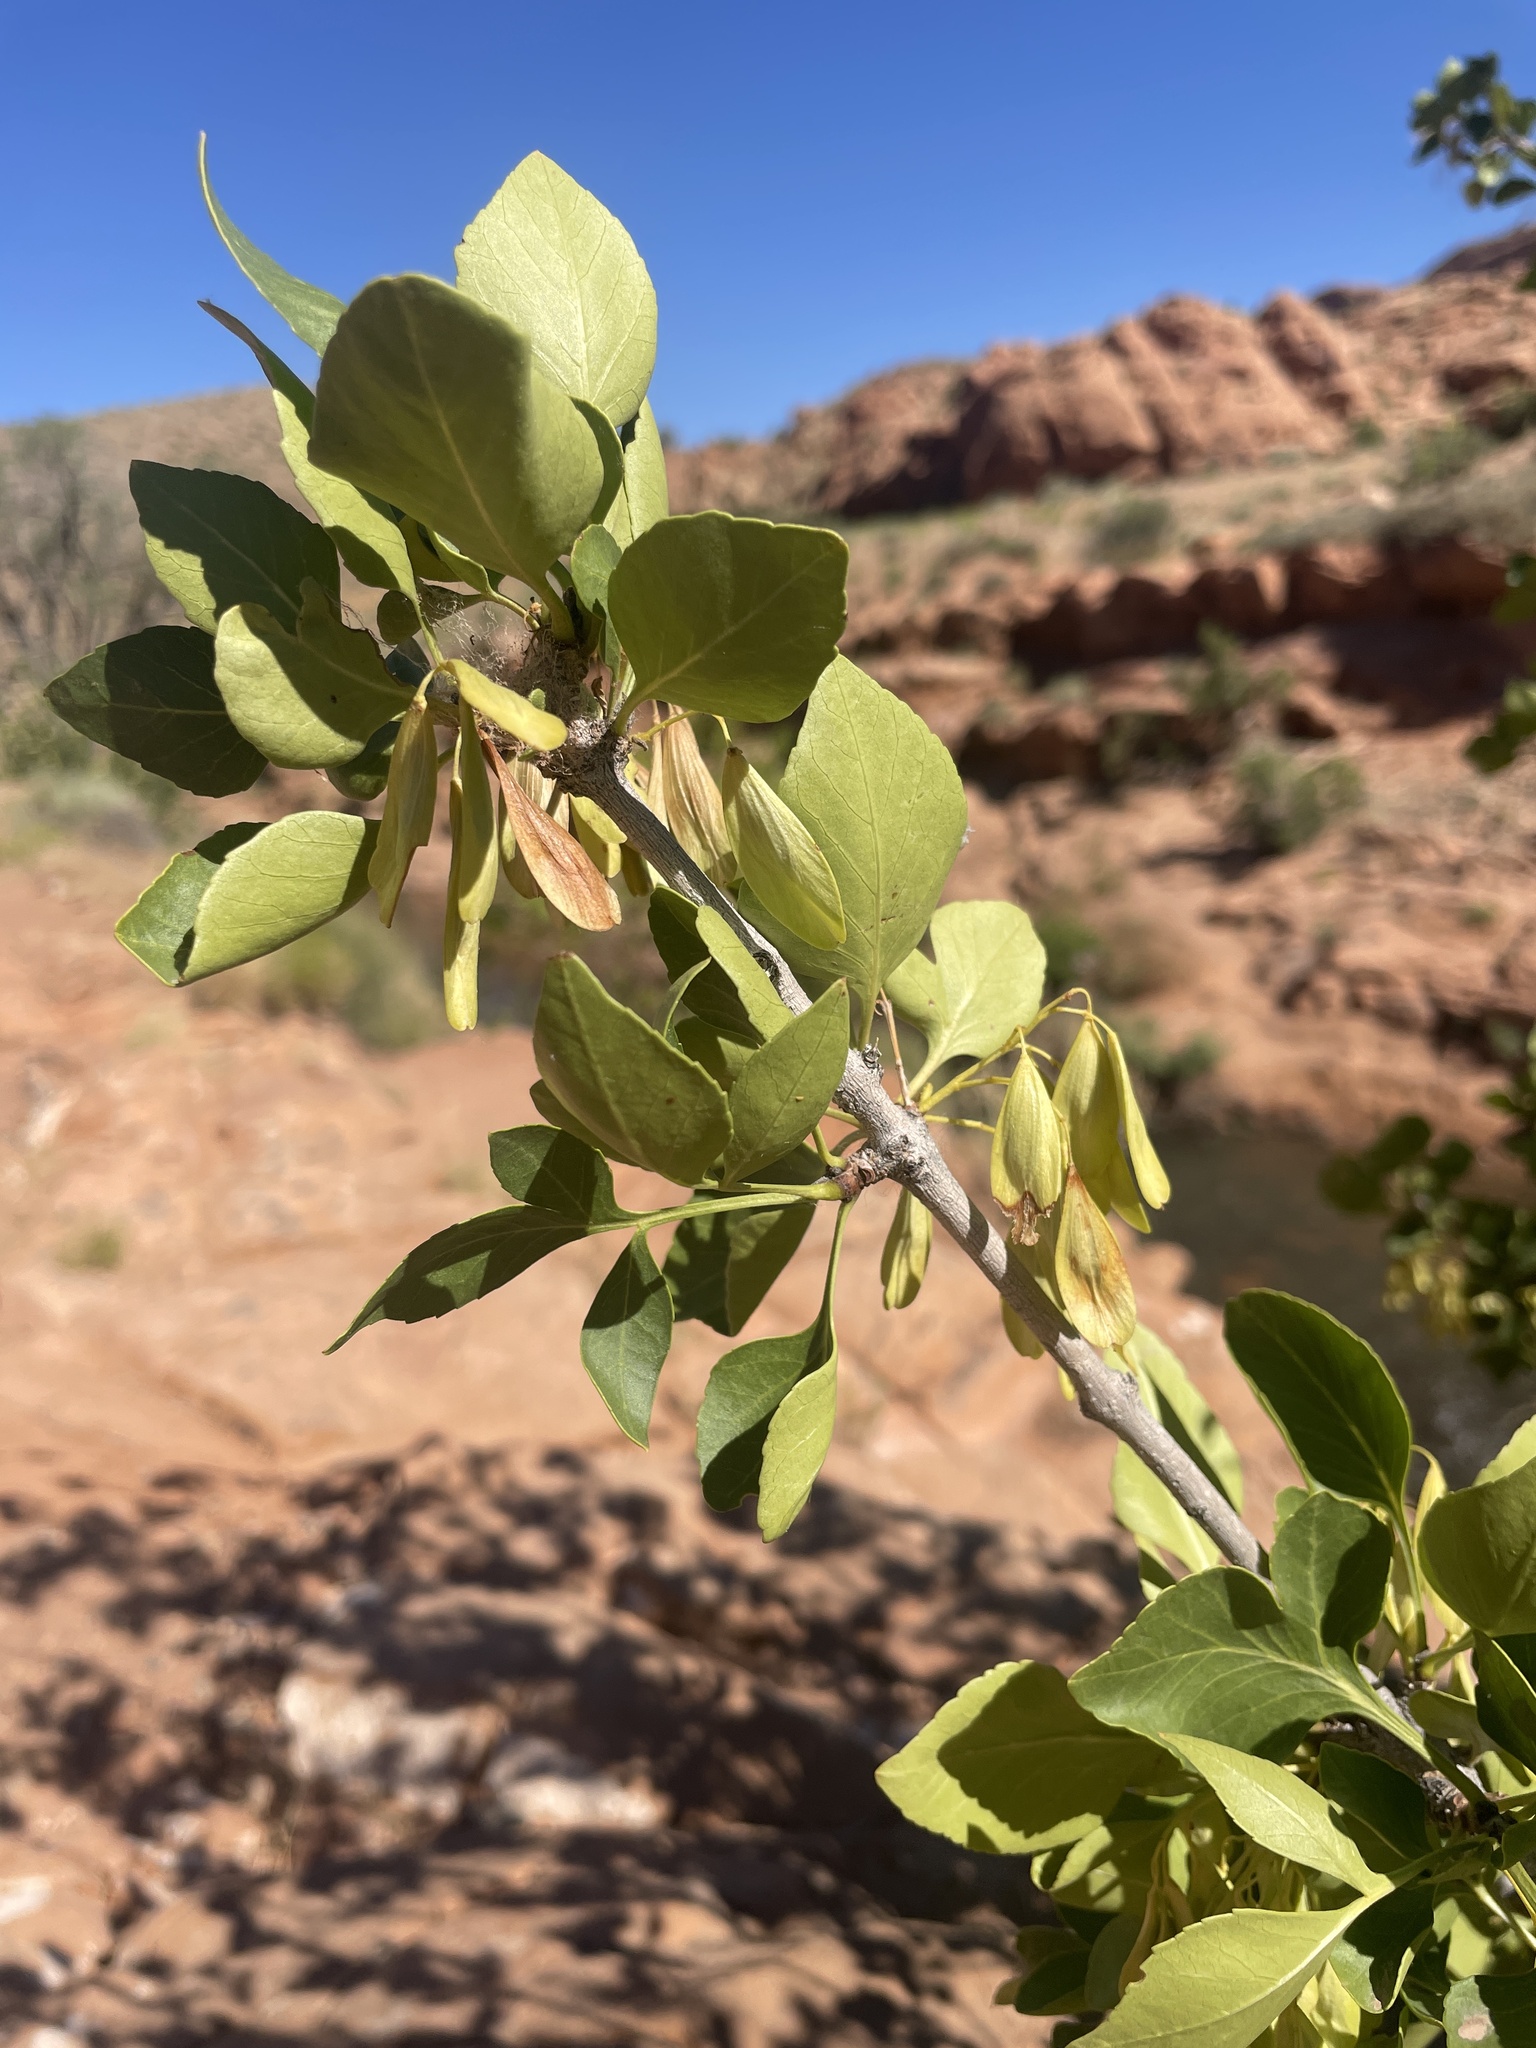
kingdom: Plantae
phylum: Tracheophyta
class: Magnoliopsida
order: Lamiales
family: Oleaceae
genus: Fraxinus
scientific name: Fraxinus anomala
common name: Utah ash
